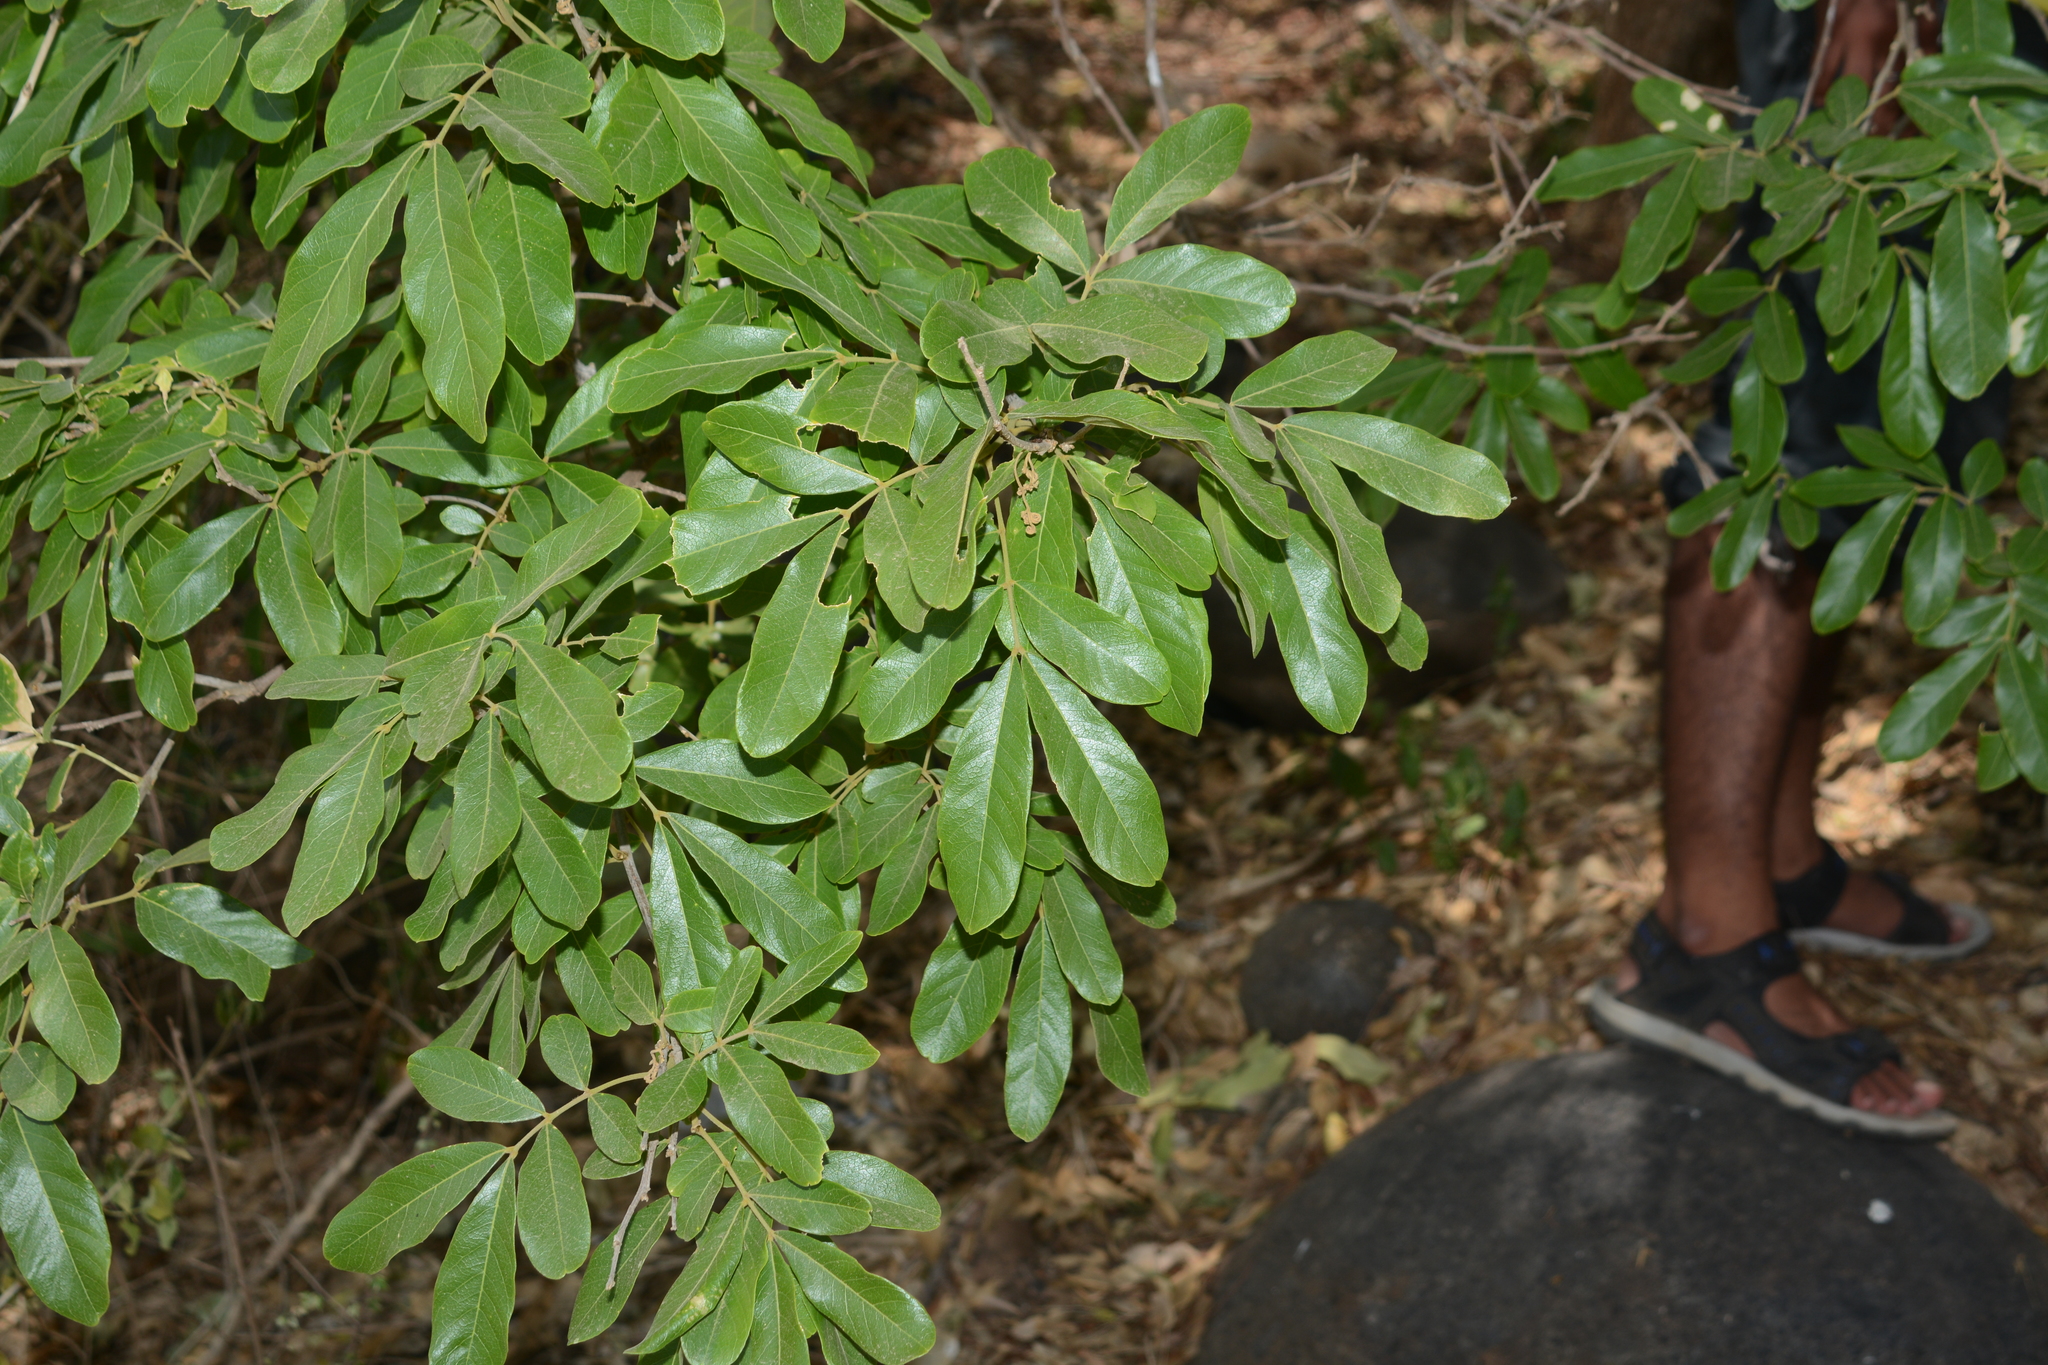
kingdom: Plantae
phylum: Tracheophyta
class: Magnoliopsida
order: Sapindales
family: Sapindaceae
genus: Sapindus
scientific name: Sapindus emarginatus
